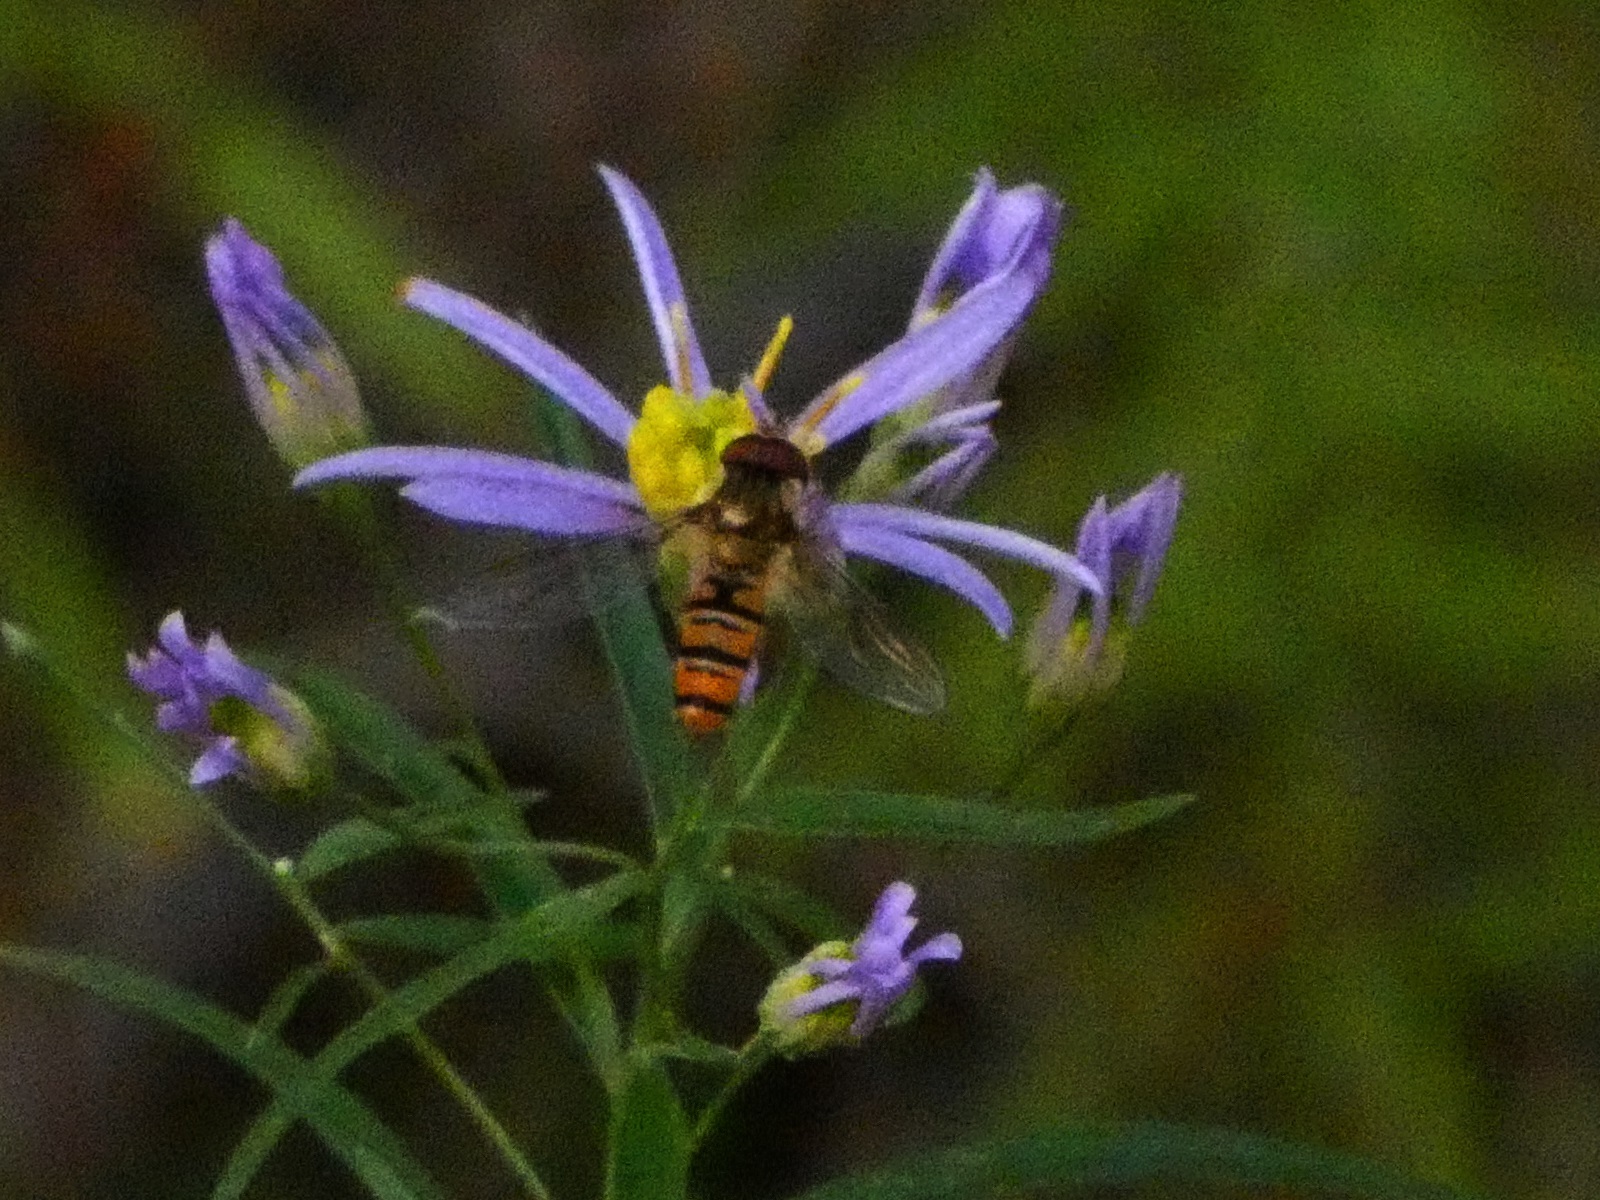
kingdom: Animalia
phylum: Arthropoda
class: Insecta
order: Diptera
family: Syrphidae
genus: Episyrphus
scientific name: Episyrphus balteatus
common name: Marmalade hoverfly
